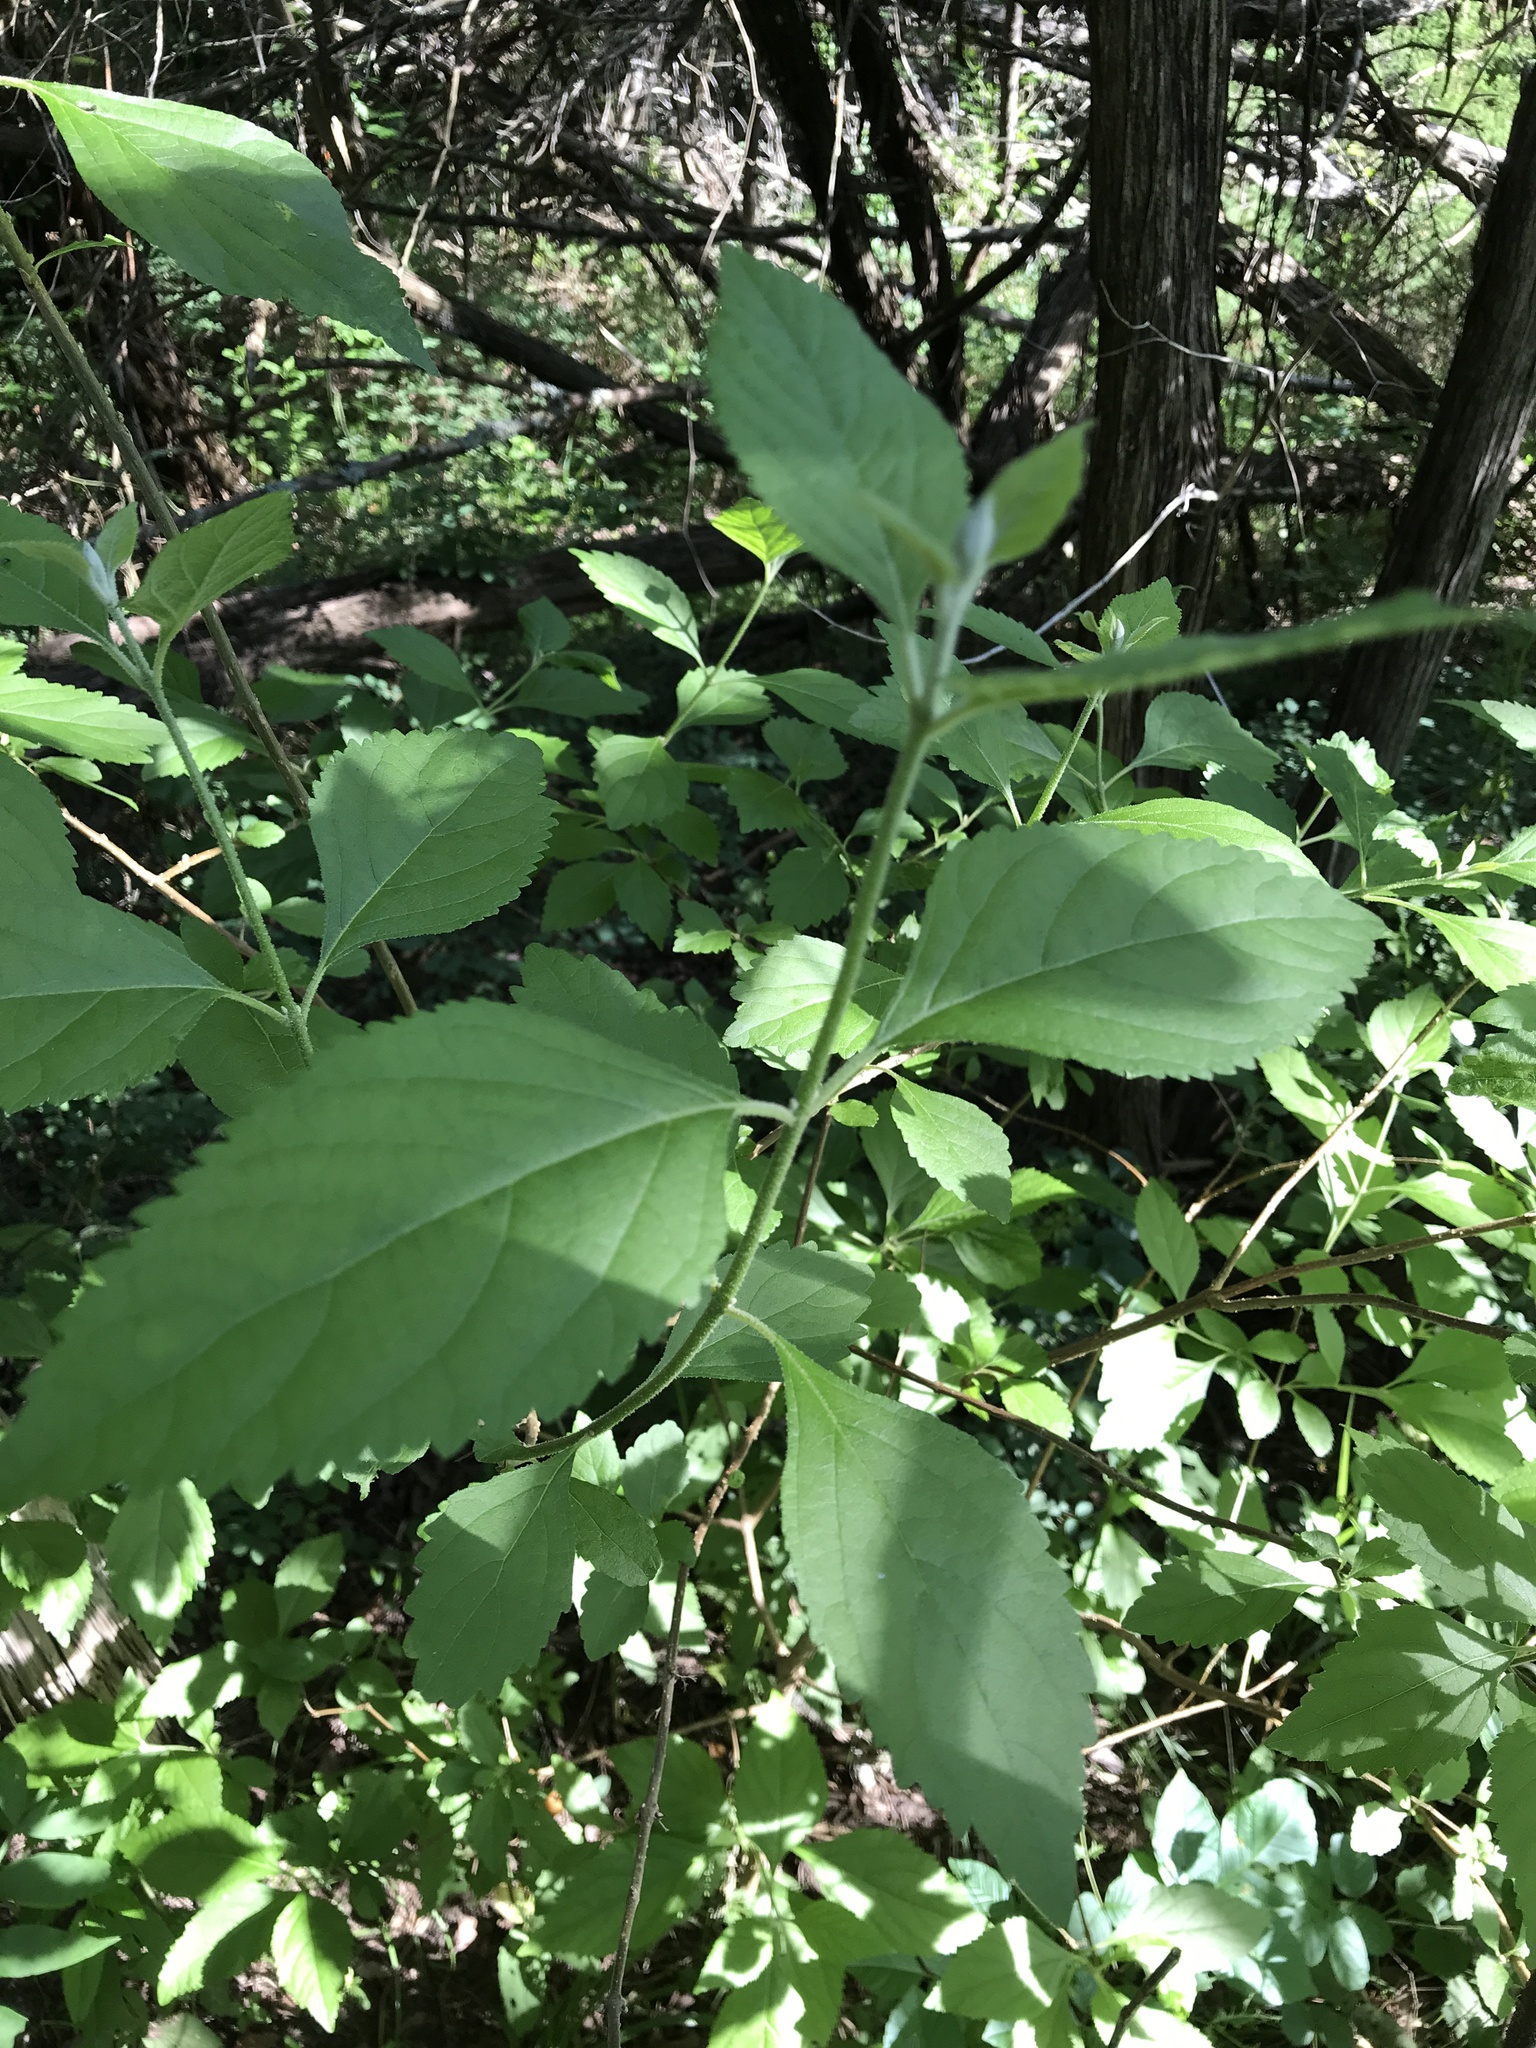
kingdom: Plantae
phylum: Tracheophyta
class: Magnoliopsida
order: Lamiales
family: Lamiaceae
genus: Callicarpa
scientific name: Callicarpa americana
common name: American beautyberry
